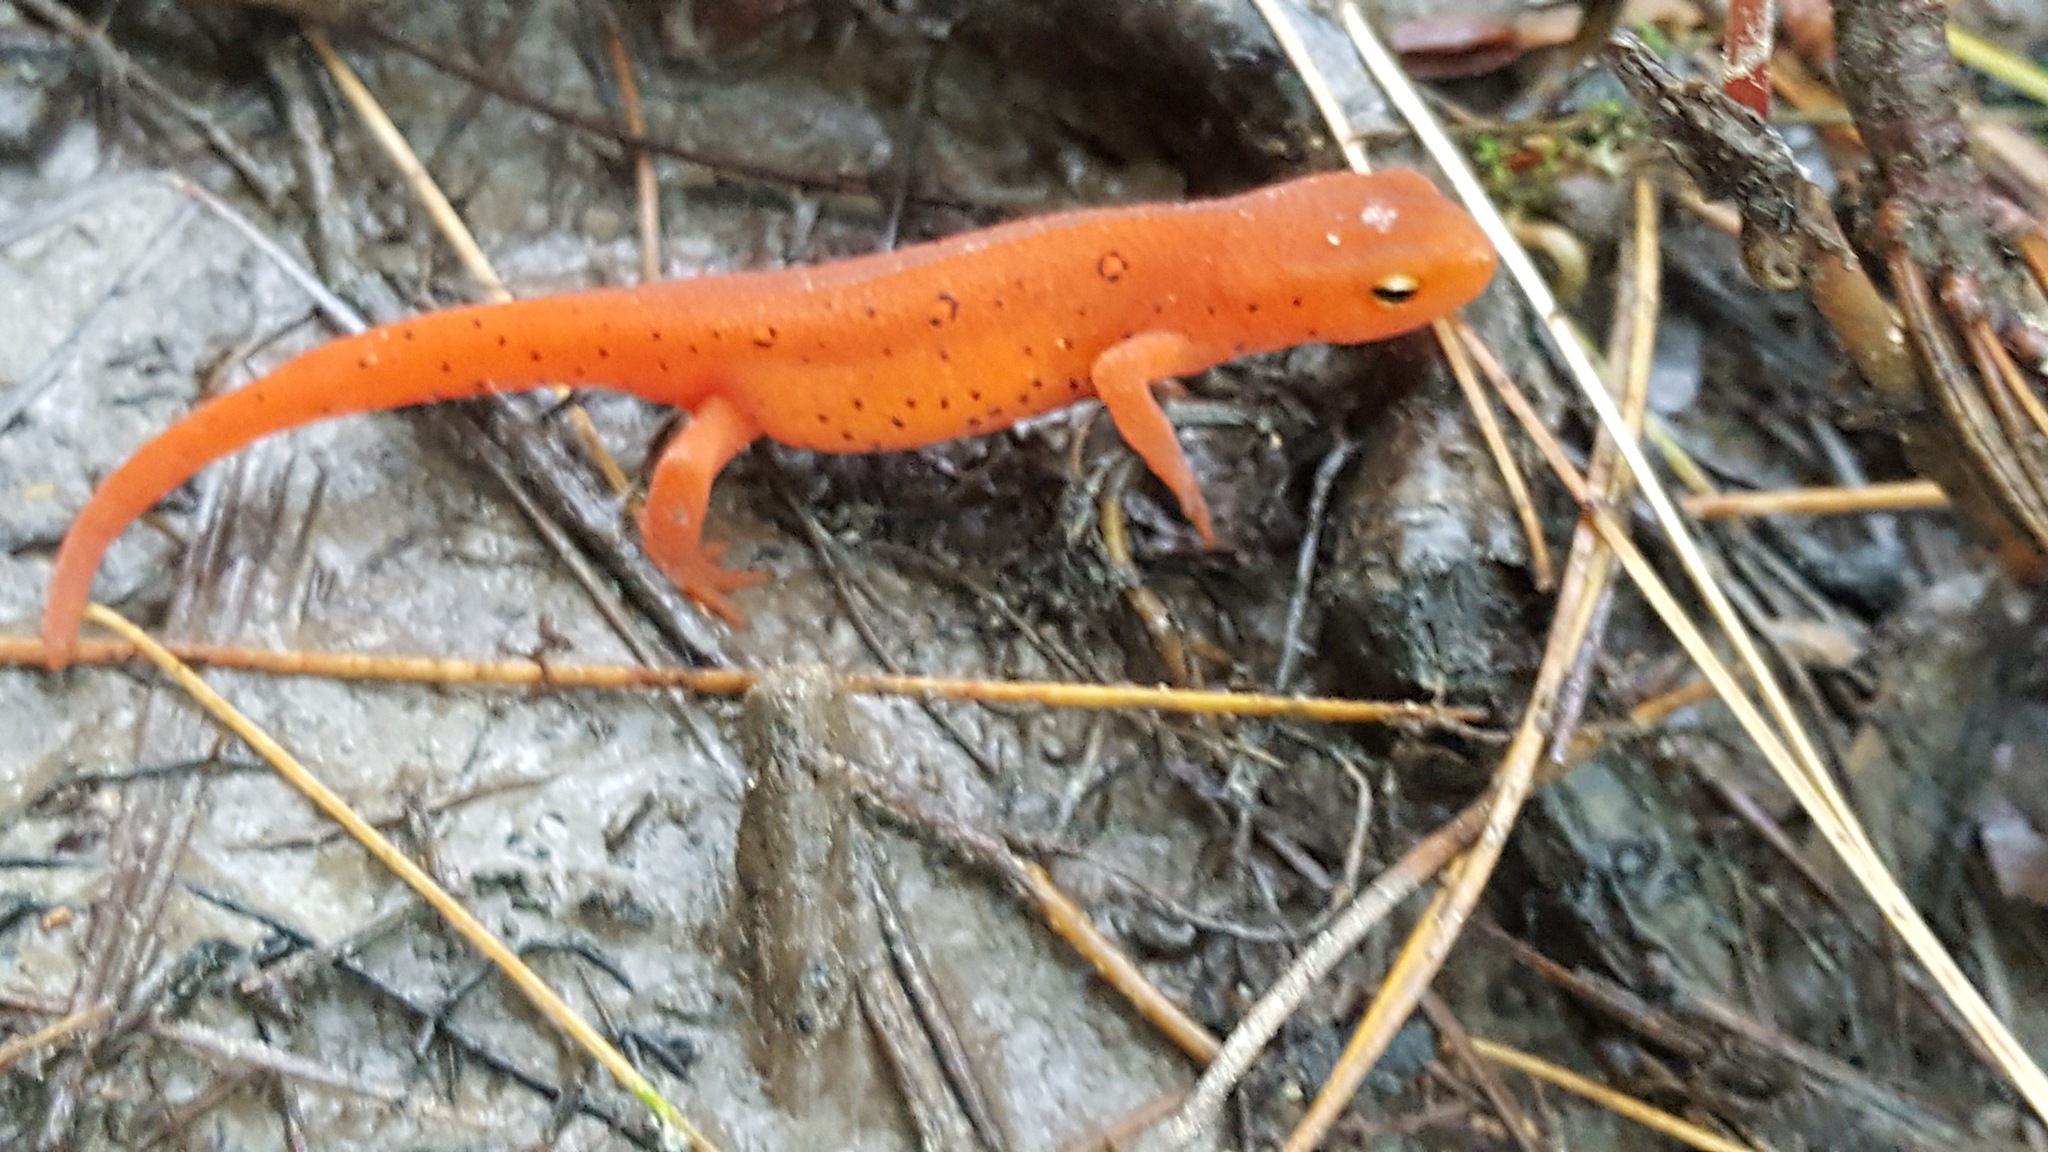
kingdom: Animalia
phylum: Chordata
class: Amphibia
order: Caudata
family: Salamandridae
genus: Notophthalmus
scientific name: Notophthalmus viridescens
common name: Eastern newt
